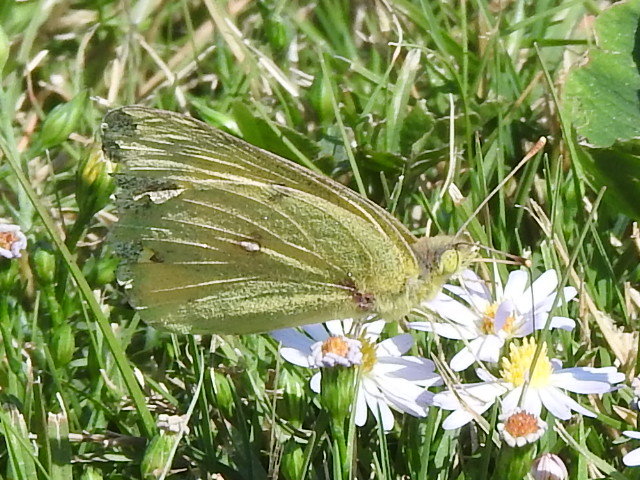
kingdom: Animalia
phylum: Arthropoda
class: Insecta
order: Lepidoptera
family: Pieridae
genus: Colias
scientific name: Colias eurytheme
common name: Alfalfa butterfly
